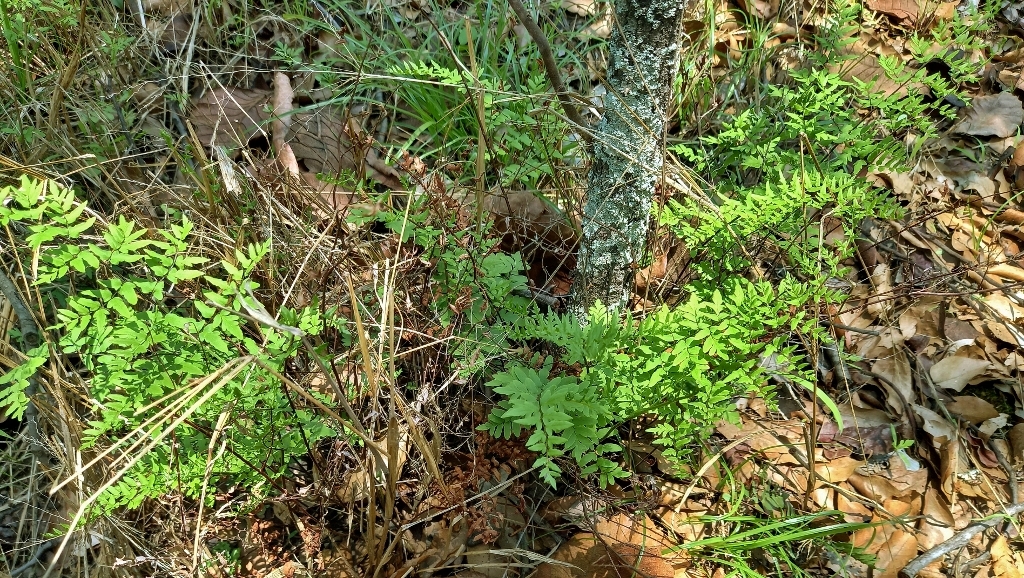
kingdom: Plantae
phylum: Tracheophyta
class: Polypodiopsida
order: Polypodiales
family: Pteridaceae
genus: Cheilanthes
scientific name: Cheilanthes viridis
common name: Green cliffbrake
